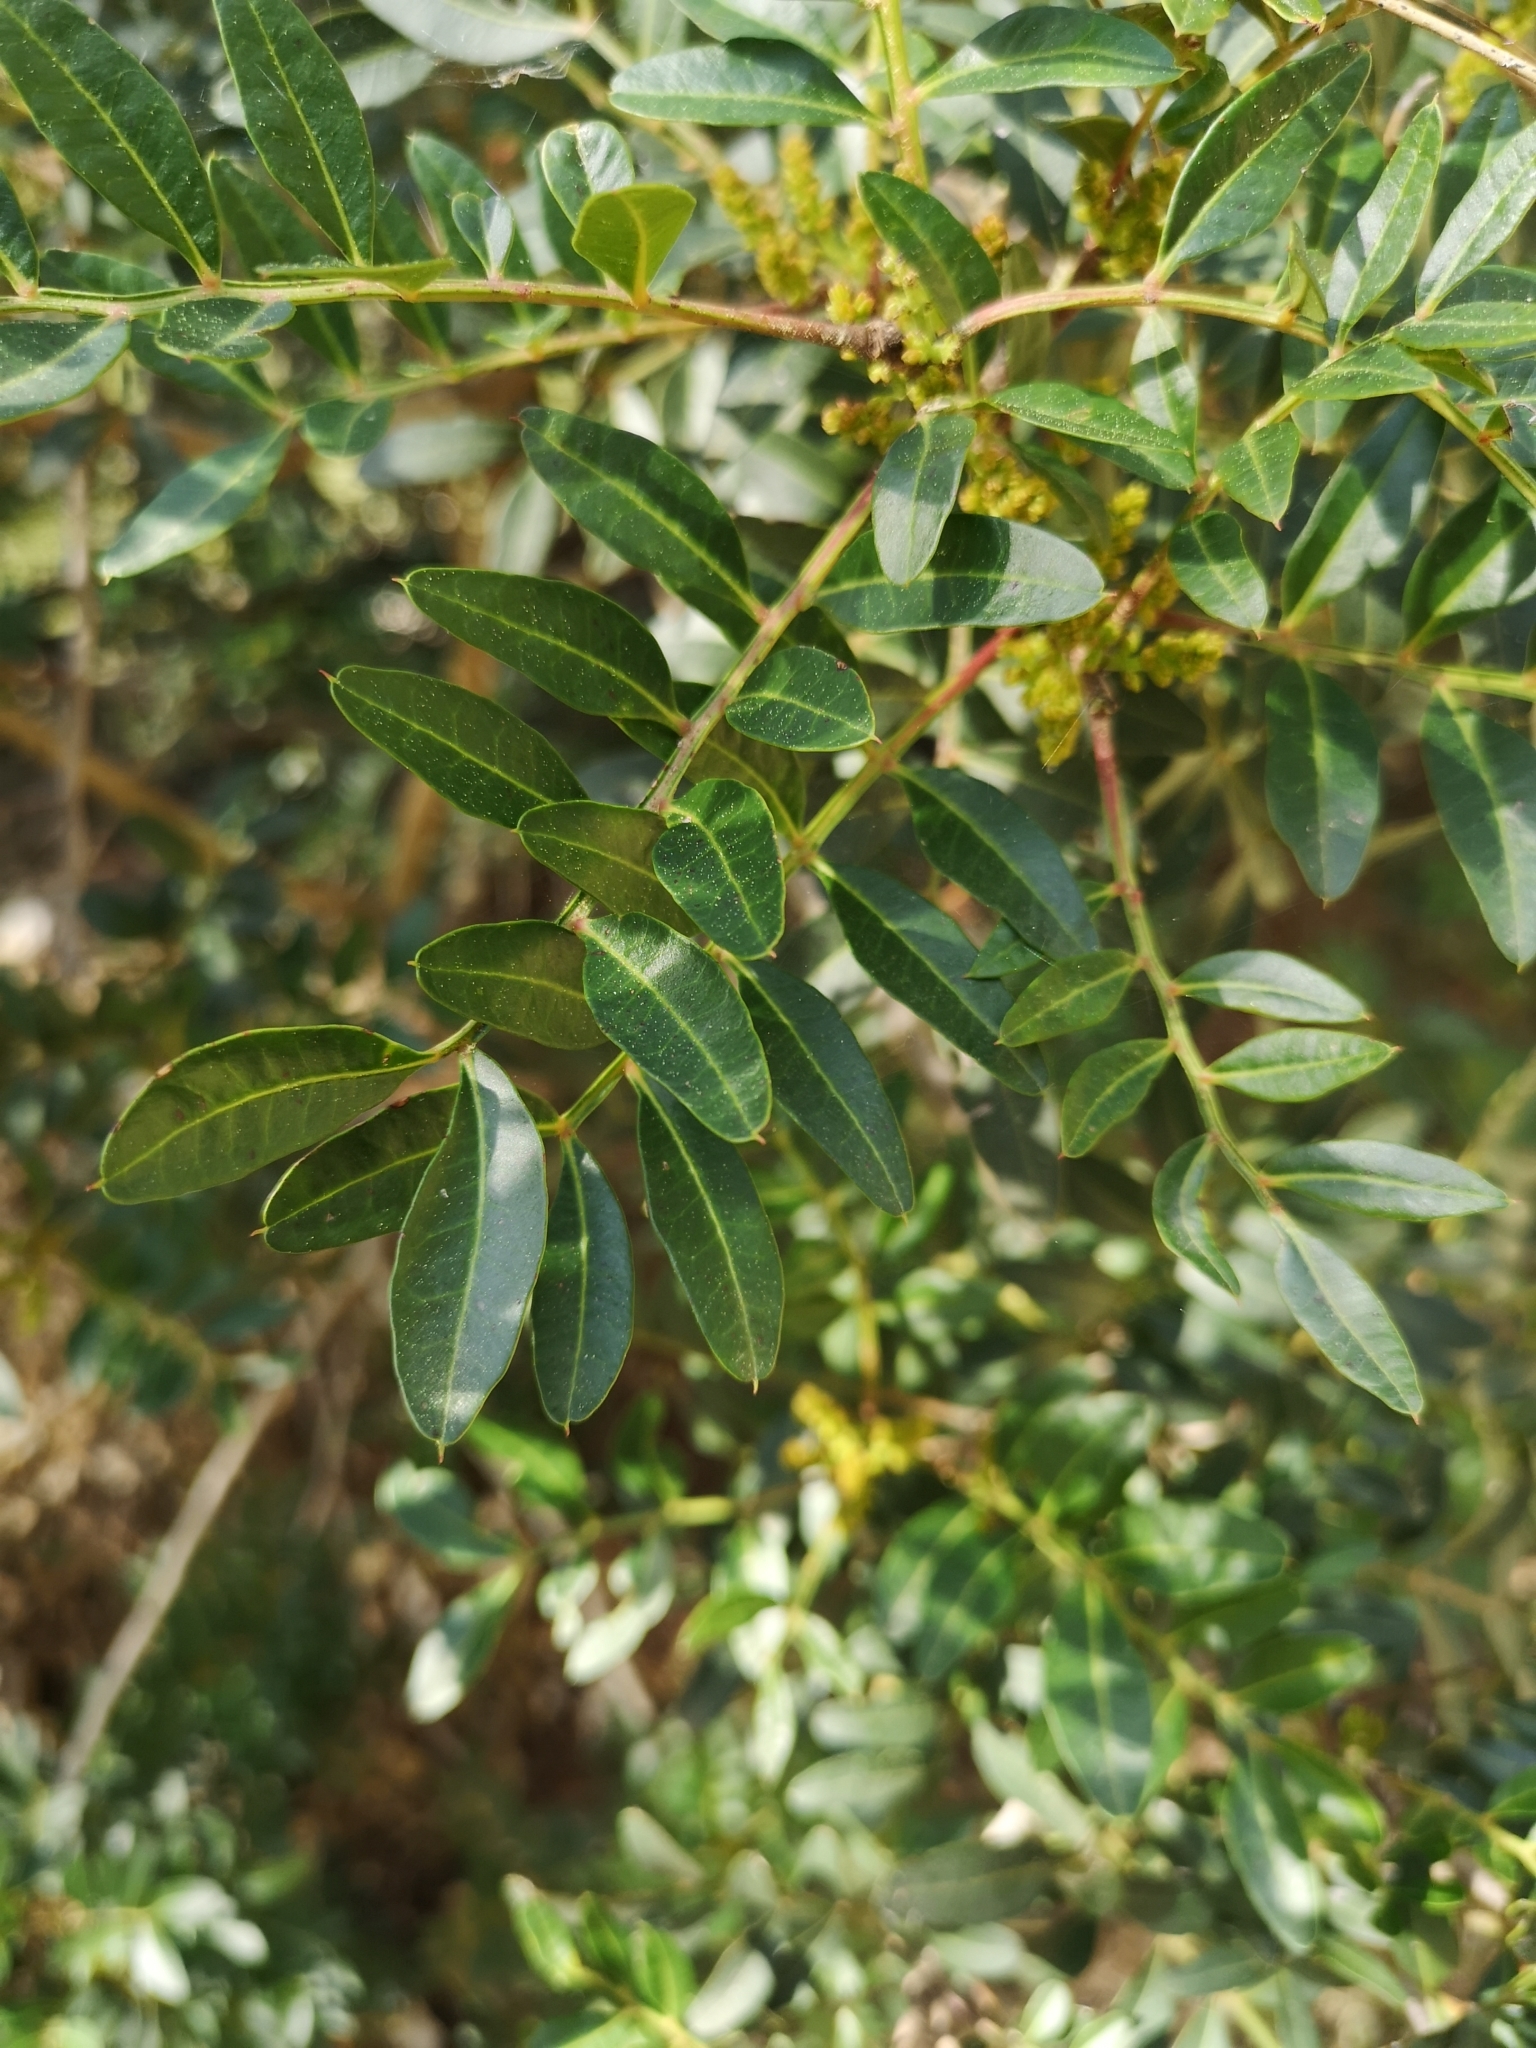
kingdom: Plantae
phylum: Tracheophyta
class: Magnoliopsida
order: Sapindales
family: Anacardiaceae
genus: Pistacia
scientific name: Pistacia lentiscus
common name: Lentisk
